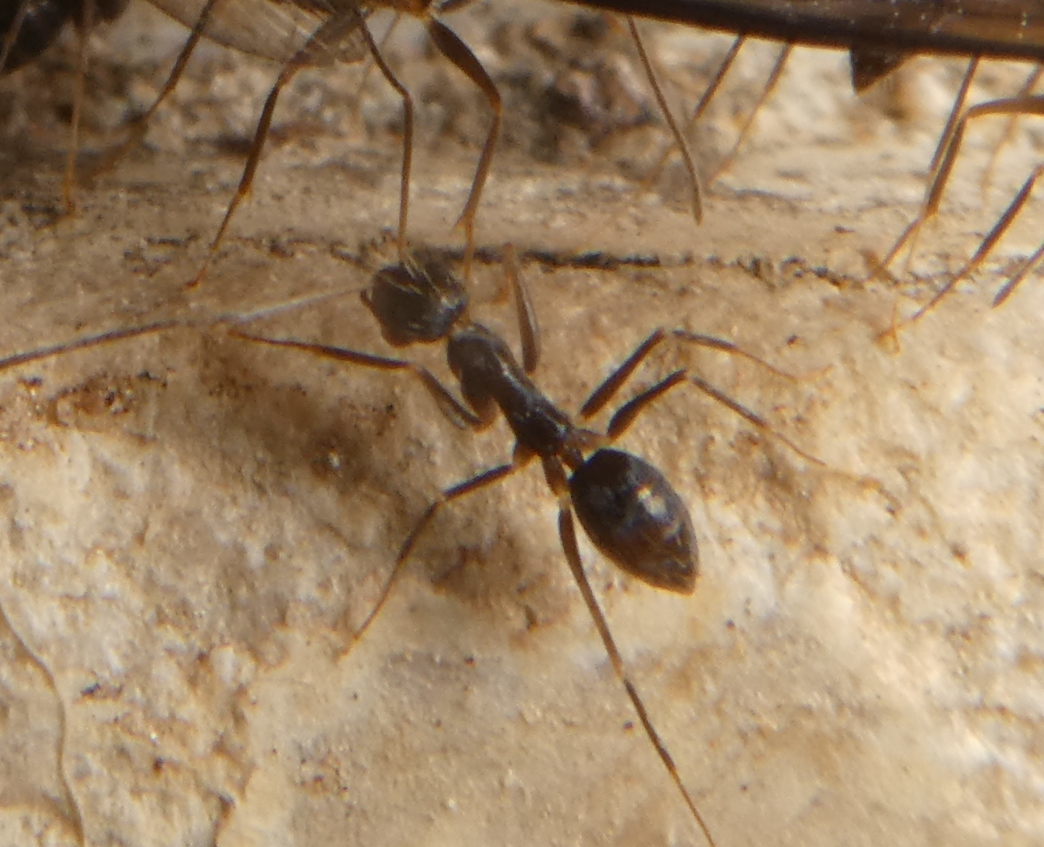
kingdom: Animalia
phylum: Arthropoda
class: Insecta
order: Hymenoptera
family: Formicidae
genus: Paratrechina
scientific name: Paratrechina longicornis
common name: Longhorned crazy ant
